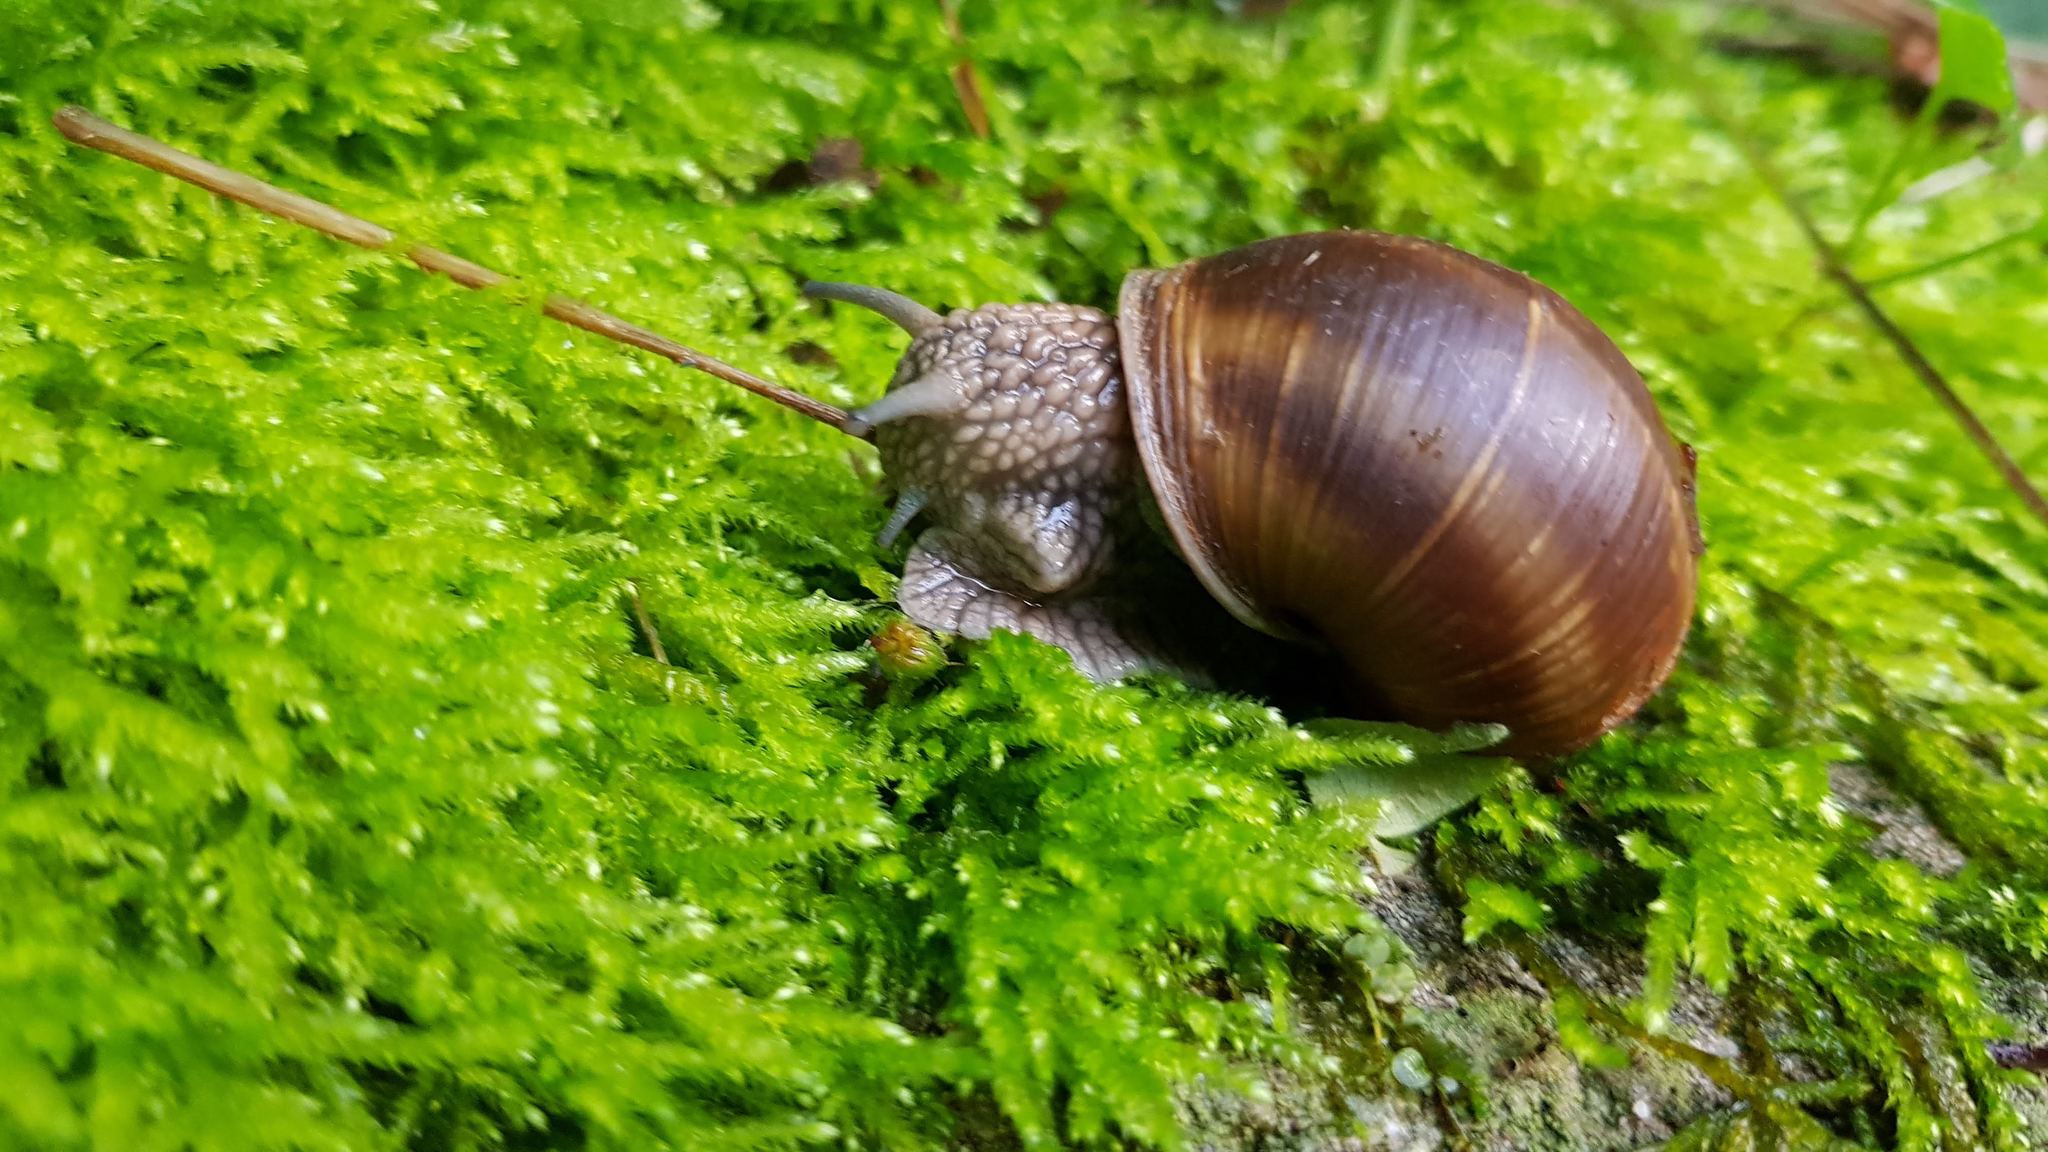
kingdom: Animalia
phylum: Mollusca
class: Gastropoda
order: Stylommatophora
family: Helicidae
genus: Helix
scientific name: Helix pomatia
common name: Roman snail
